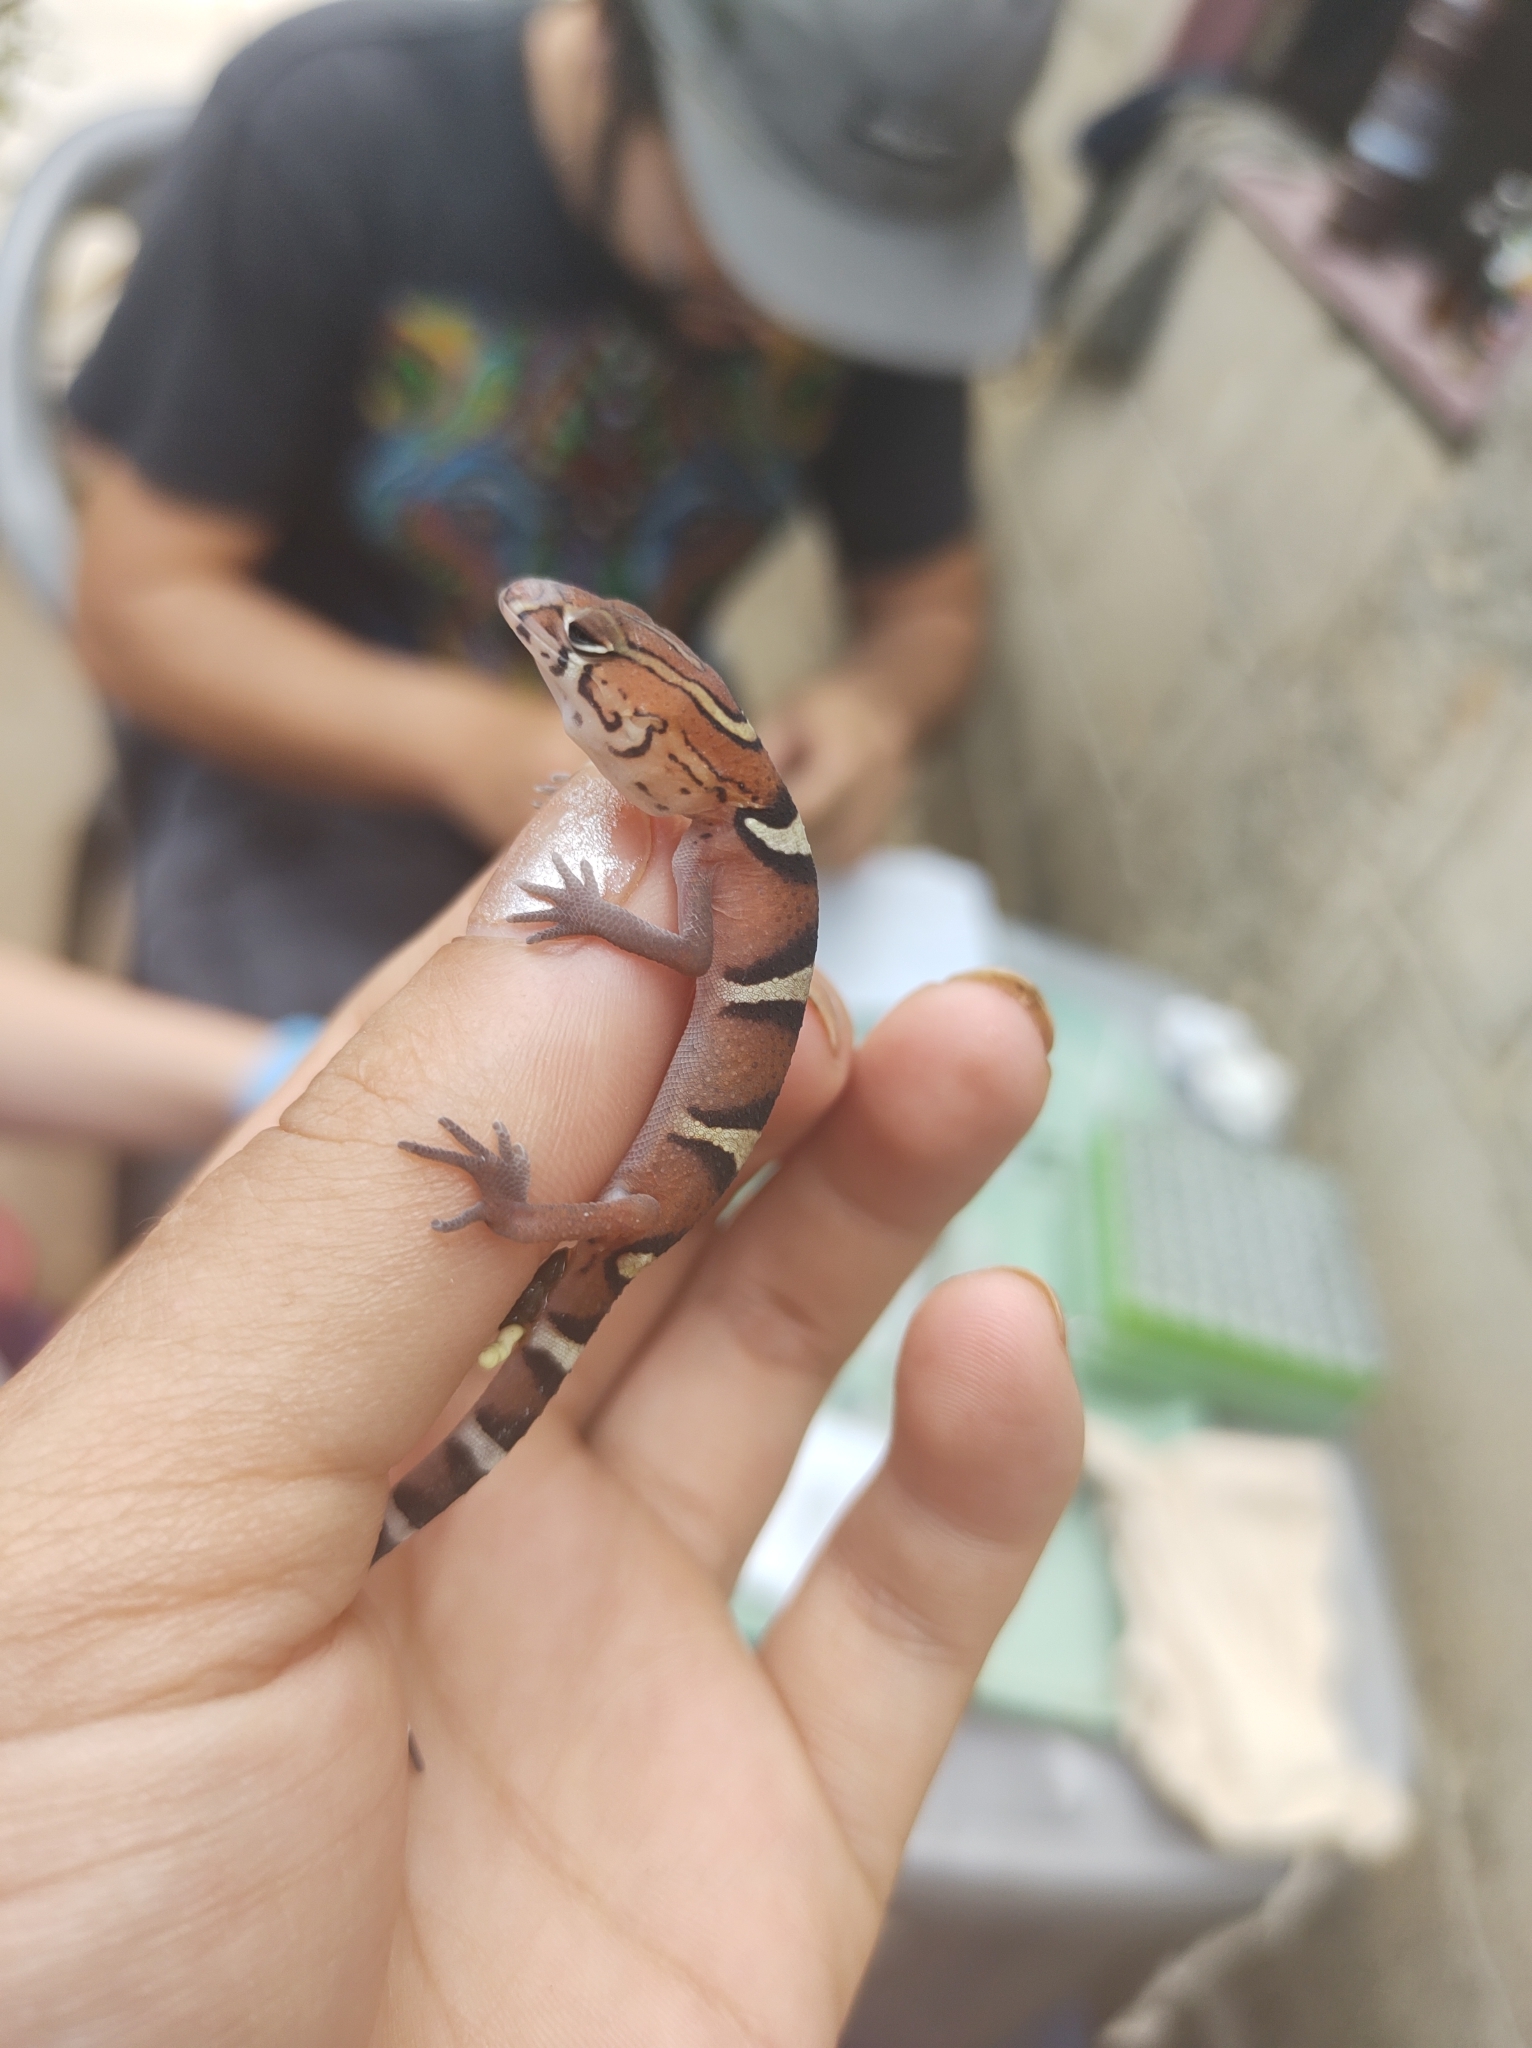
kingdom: Animalia
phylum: Chordata
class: Squamata
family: Eublepharidae
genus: Coleonyx
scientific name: Coleonyx
